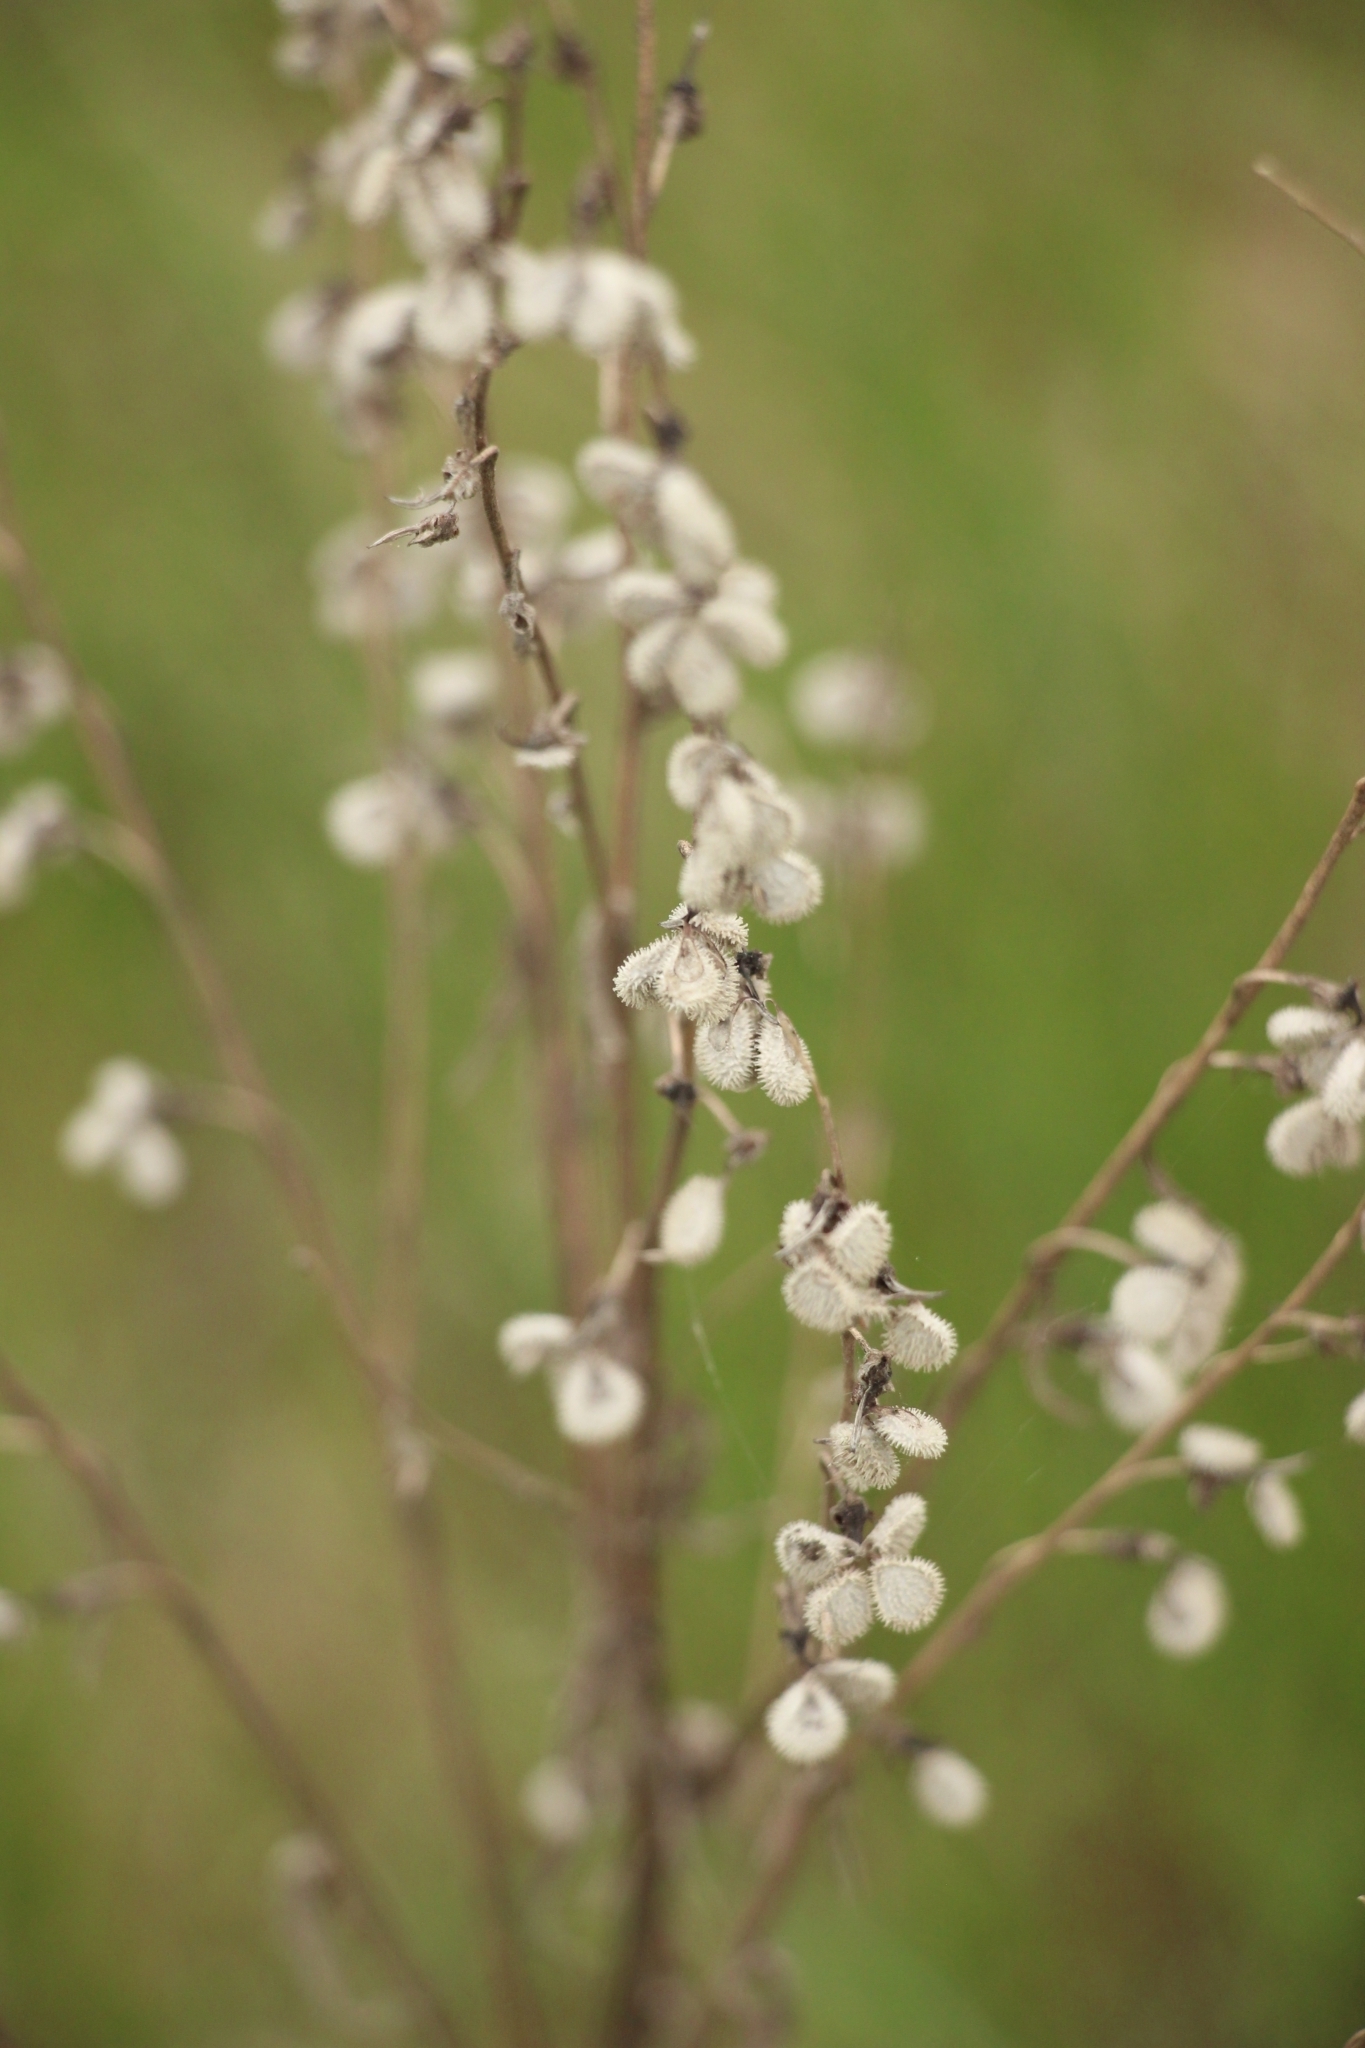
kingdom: Plantae
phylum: Tracheophyta
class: Magnoliopsida
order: Boraginales
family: Boraginaceae
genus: Cynoglossum
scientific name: Cynoglossum officinale
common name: Hound's-tongue
